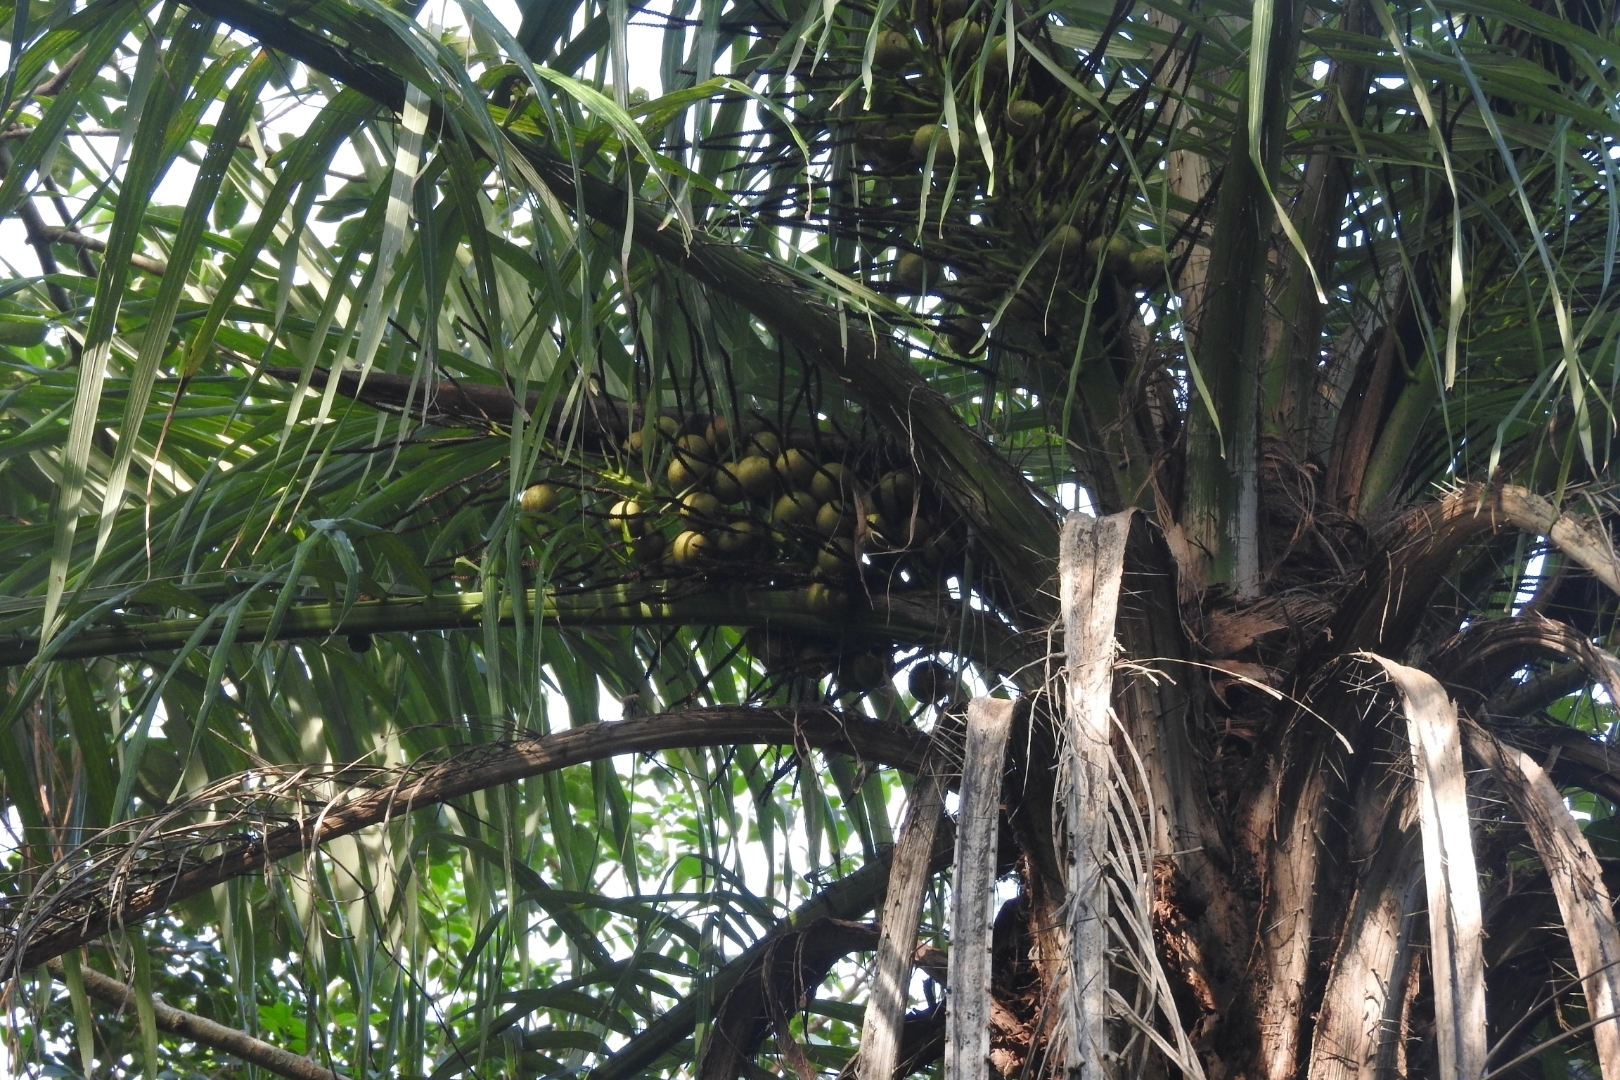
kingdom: Plantae
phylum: Tracheophyta
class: Liliopsida
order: Arecales
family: Arecaceae
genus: Acrocomia
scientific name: Acrocomia aculeata
